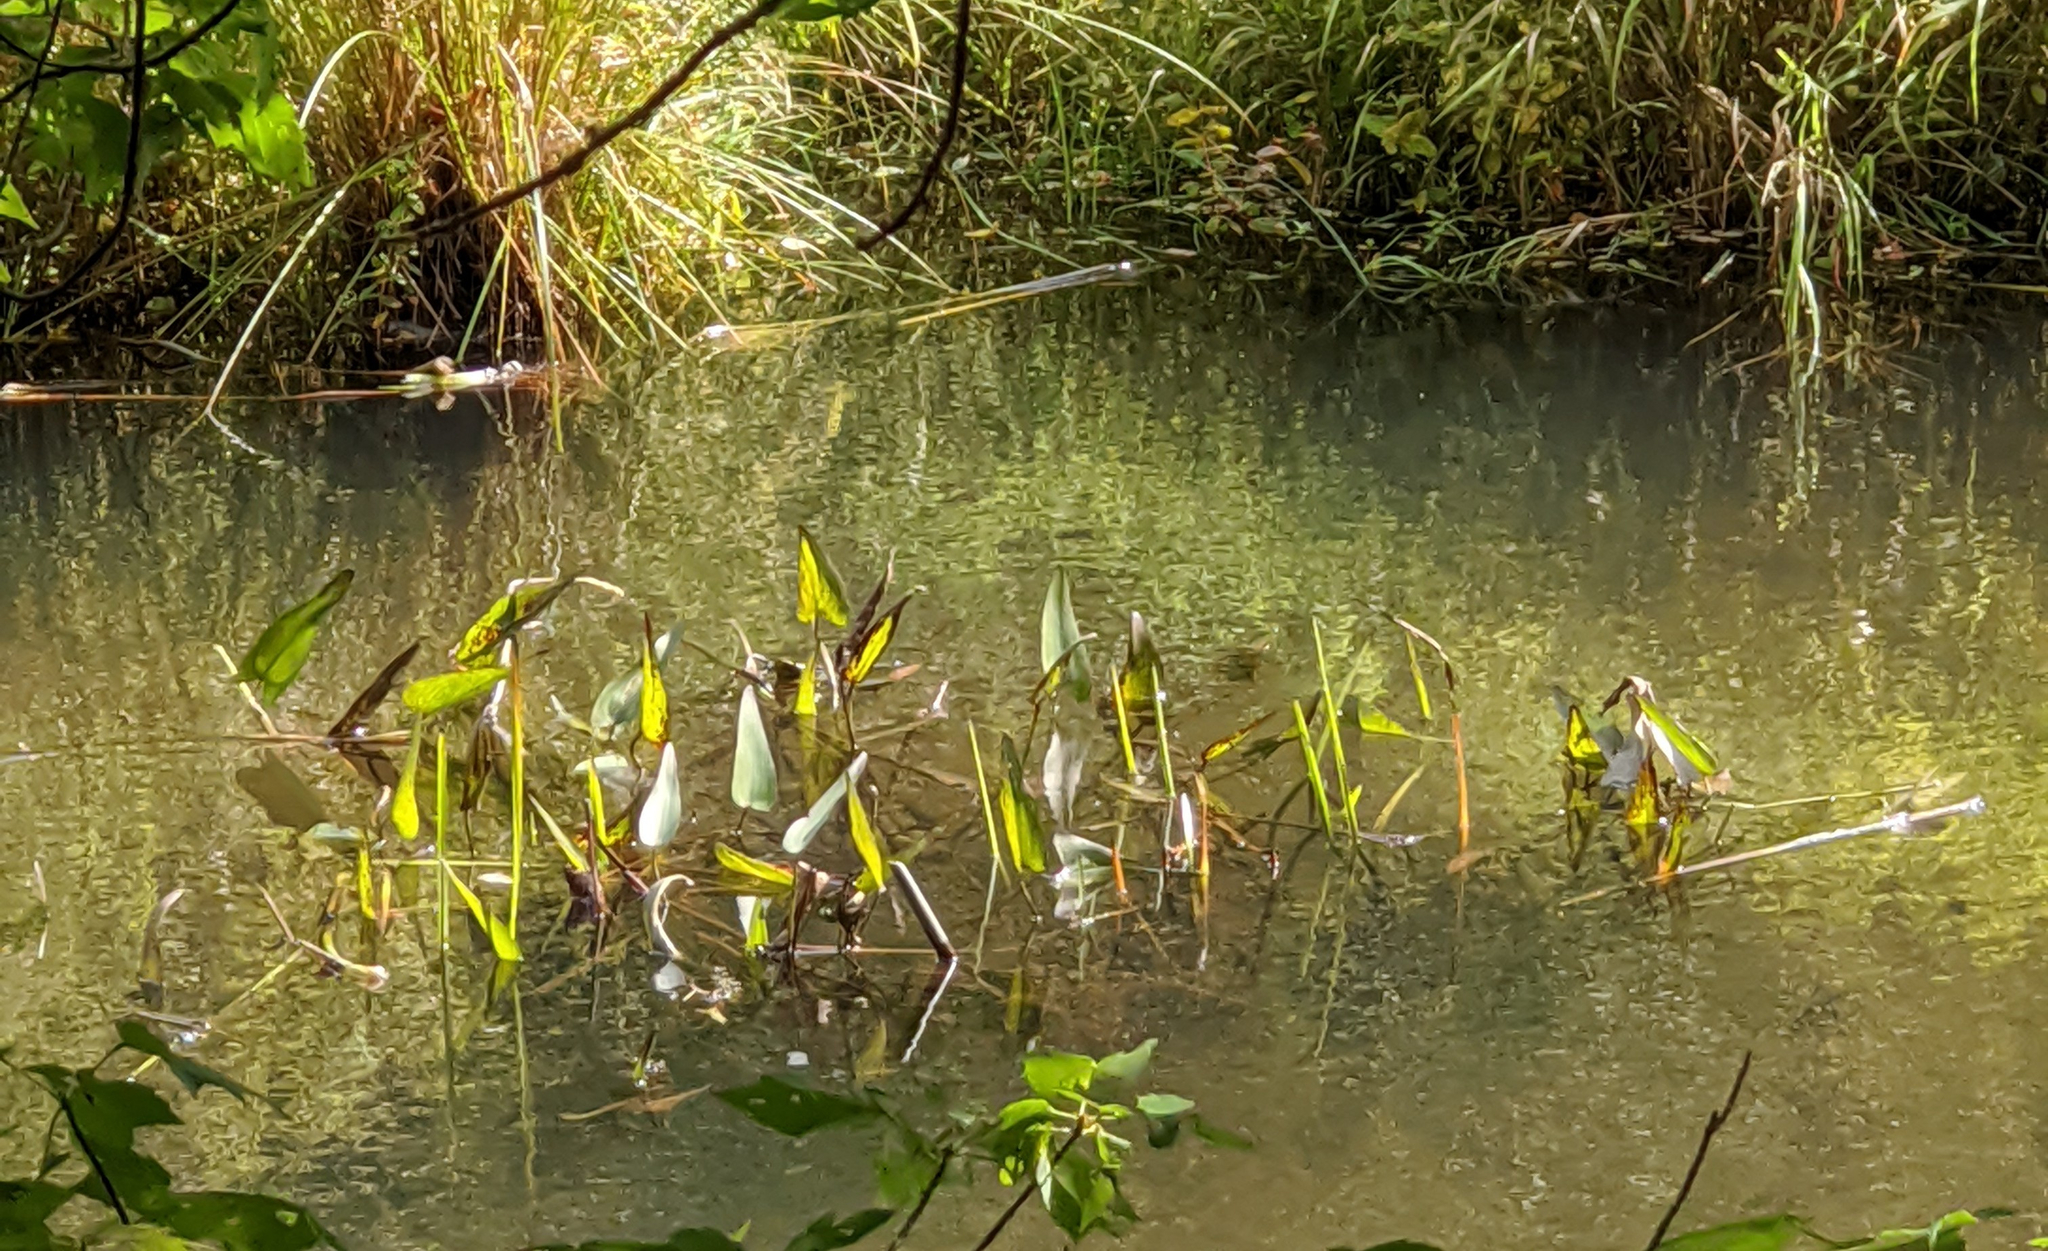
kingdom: Plantae
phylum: Tracheophyta
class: Liliopsida
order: Commelinales
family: Pontederiaceae
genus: Pontederia
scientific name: Pontederia cordata
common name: Pickerelweed
